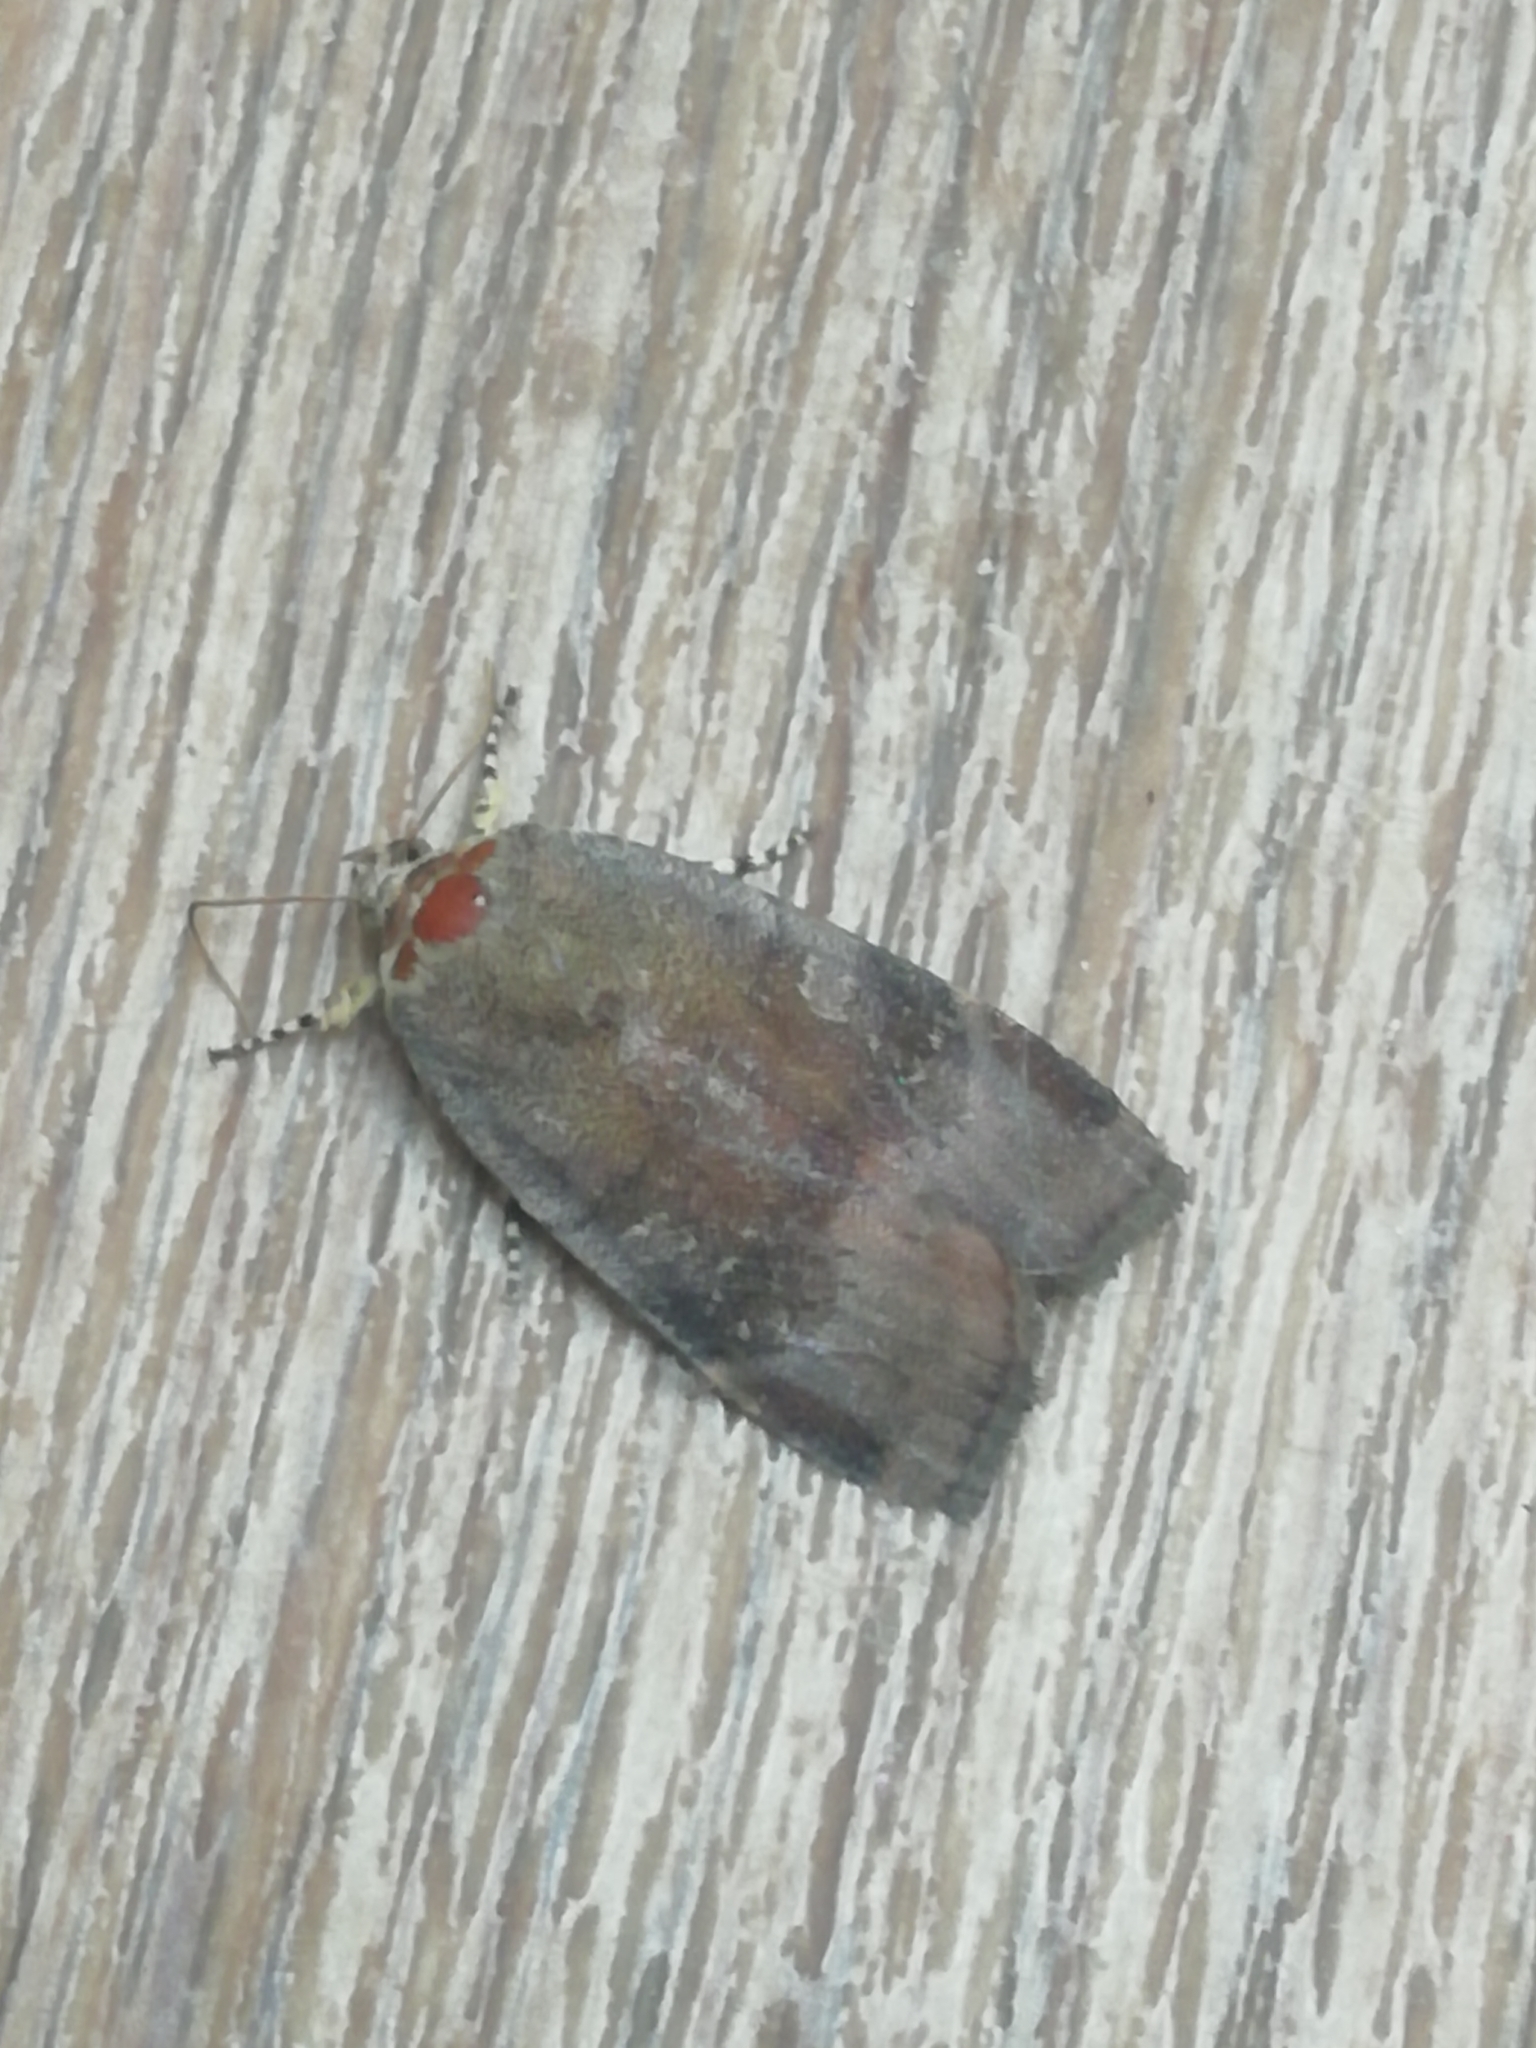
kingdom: Animalia
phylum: Arthropoda
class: Insecta
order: Lepidoptera
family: Noctuidae
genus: Noctua
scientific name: Noctua
